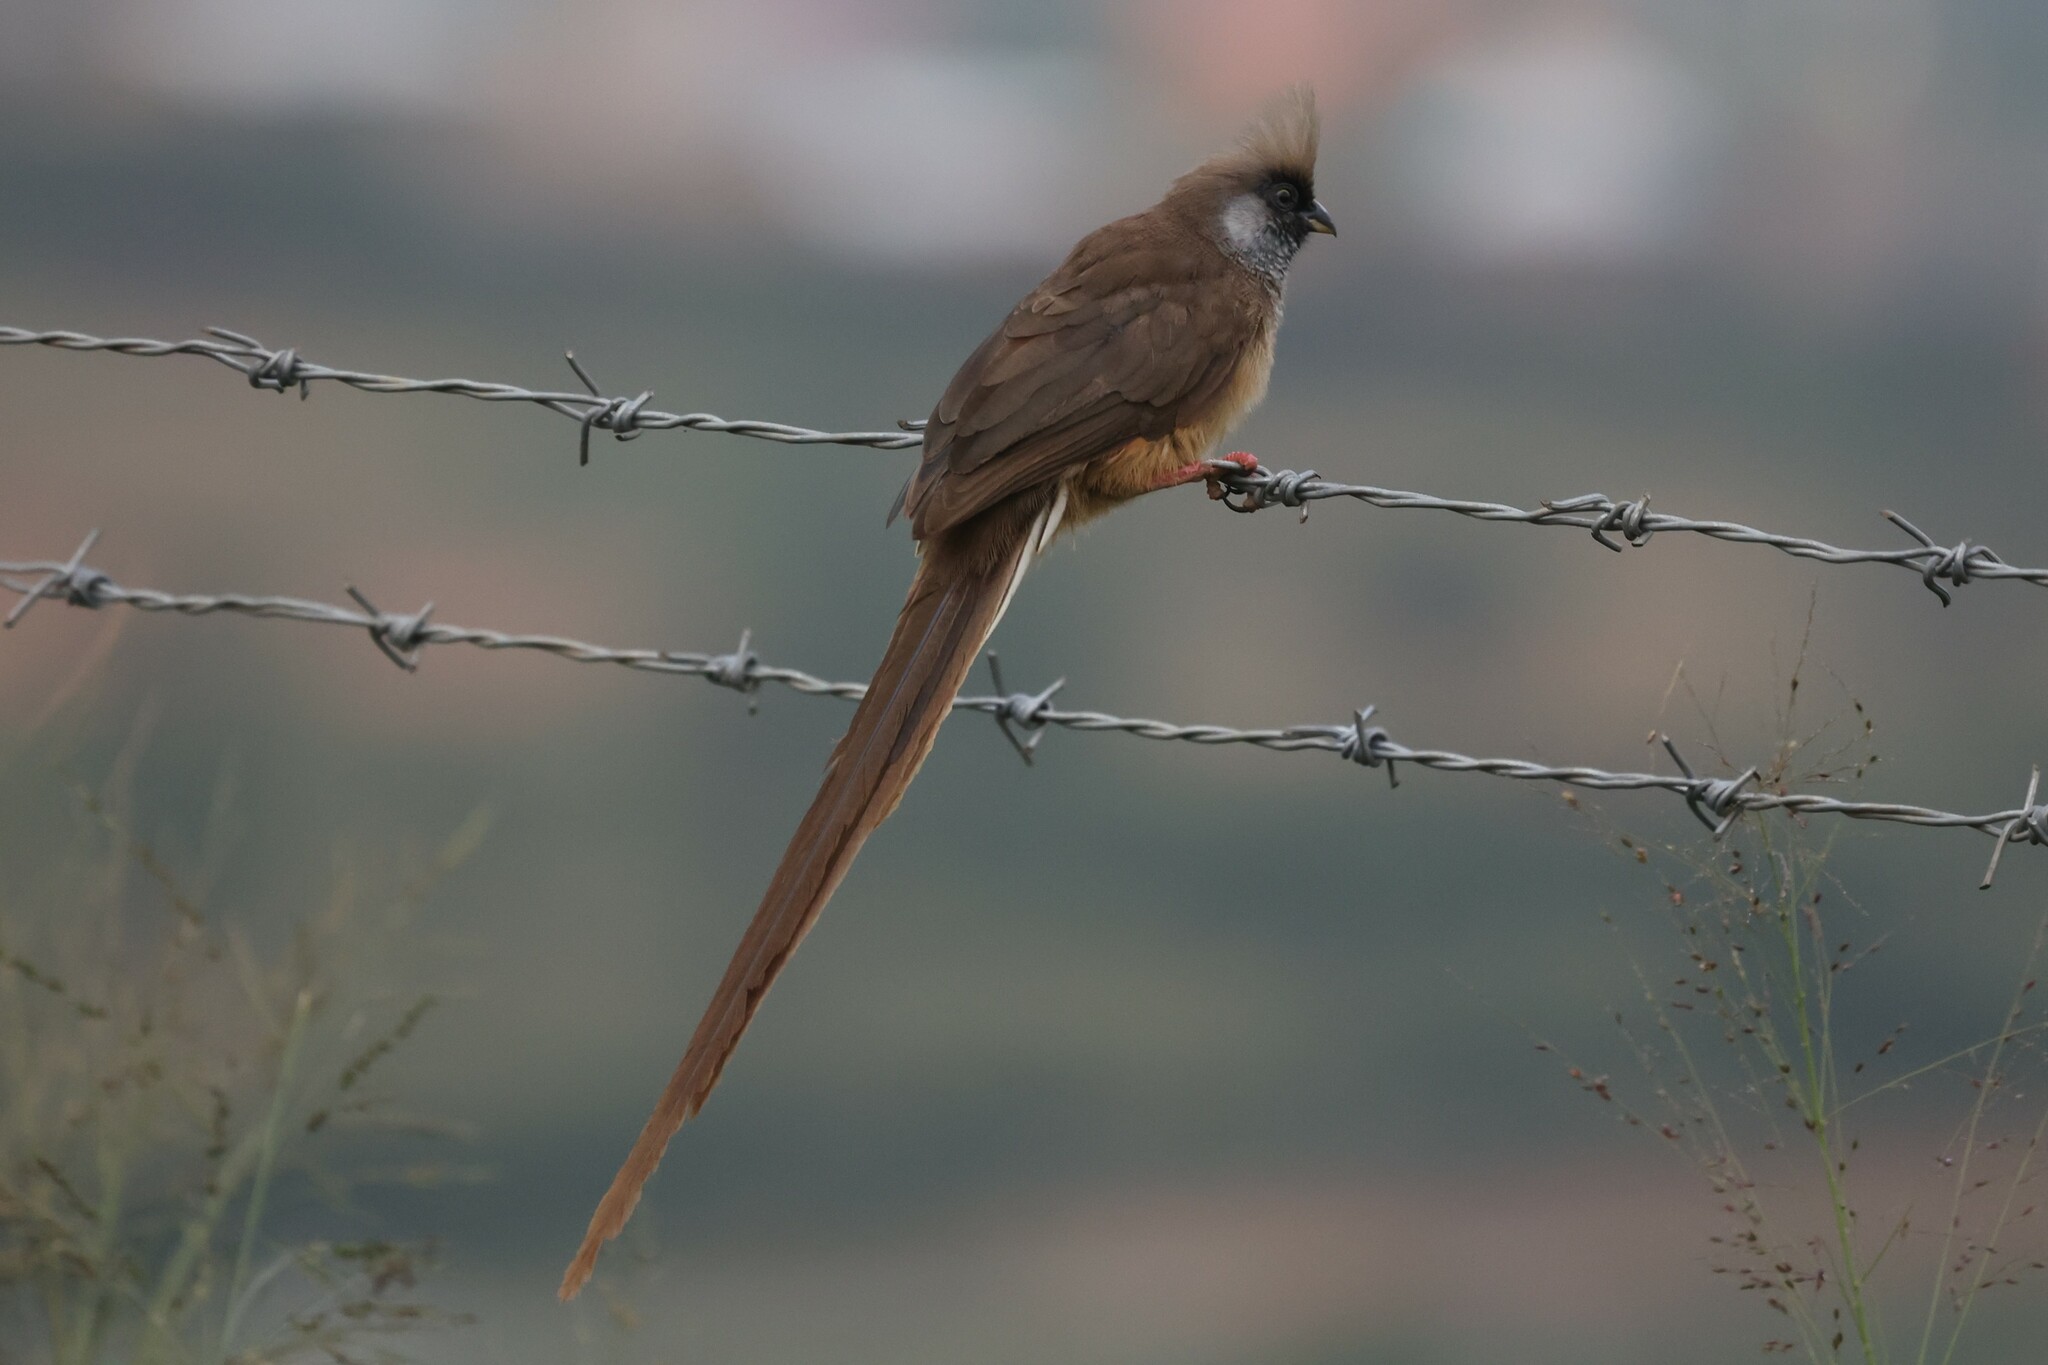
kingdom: Animalia
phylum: Chordata
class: Aves
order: Coliiformes
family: Coliidae
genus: Colius
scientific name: Colius striatus
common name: Speckled mousebird
